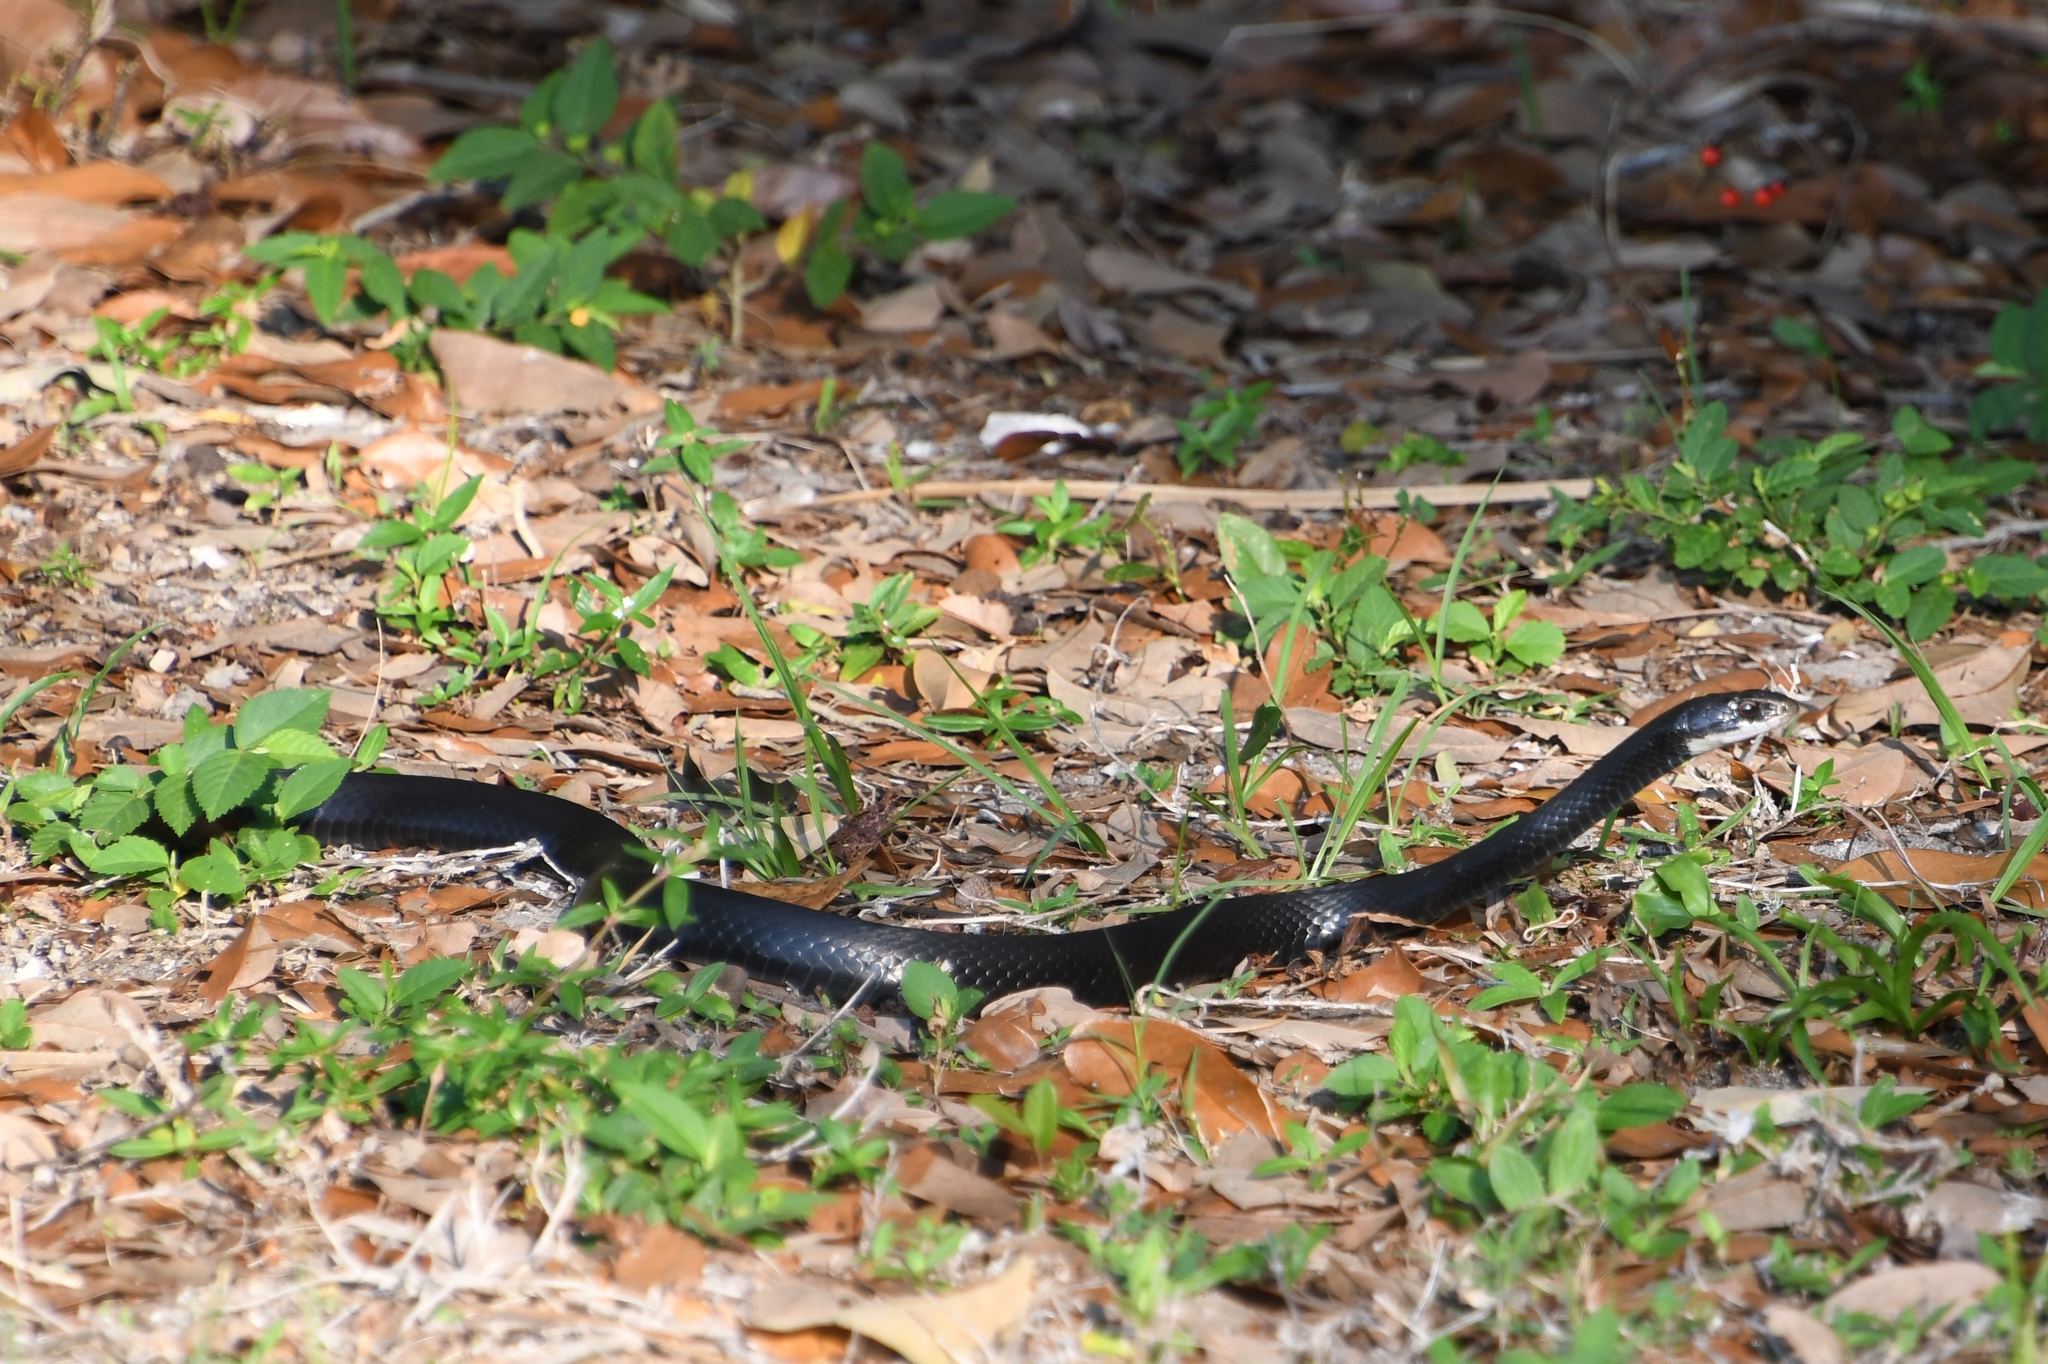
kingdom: Animalia
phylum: Chordata
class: Squamata
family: Colubridae
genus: Coluber
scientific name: Coluber constrictor
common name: Eastern racer
